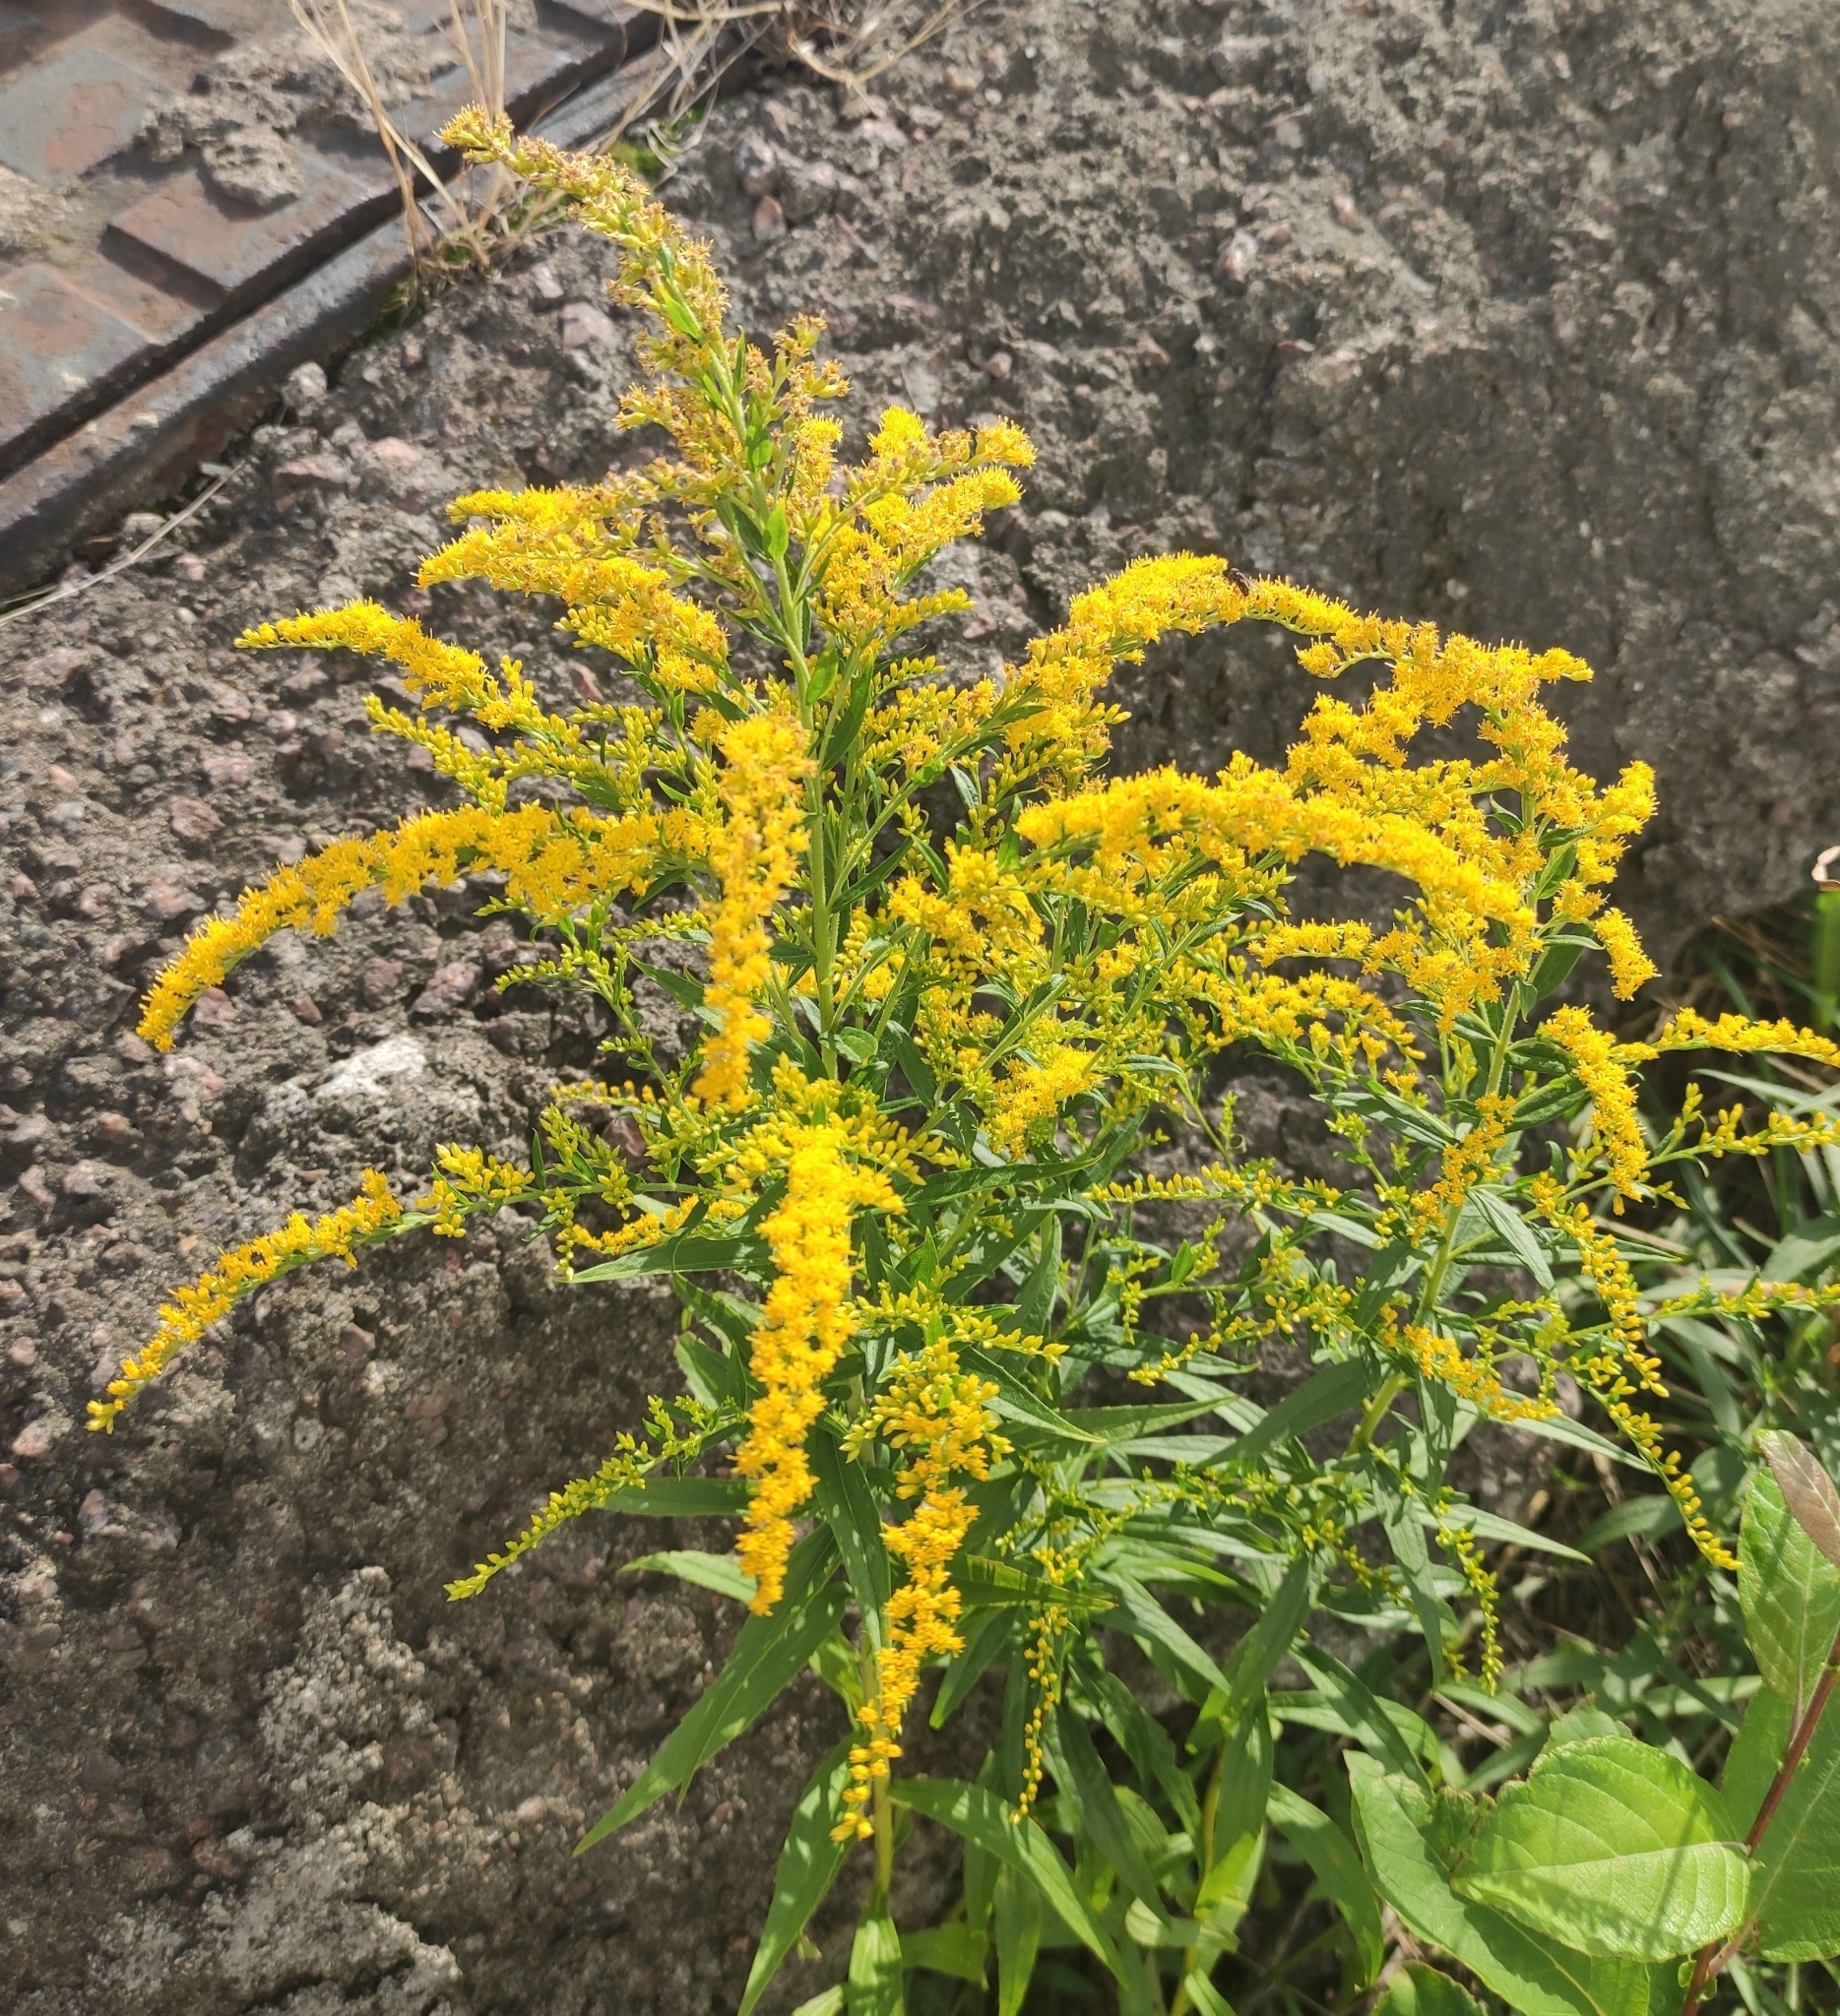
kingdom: Plantae
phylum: Tracheophyta
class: Magnoliopsida
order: Asterales
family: Asteraceae
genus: Solidago
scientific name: Solidago canadensis
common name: Canada goldenrod
